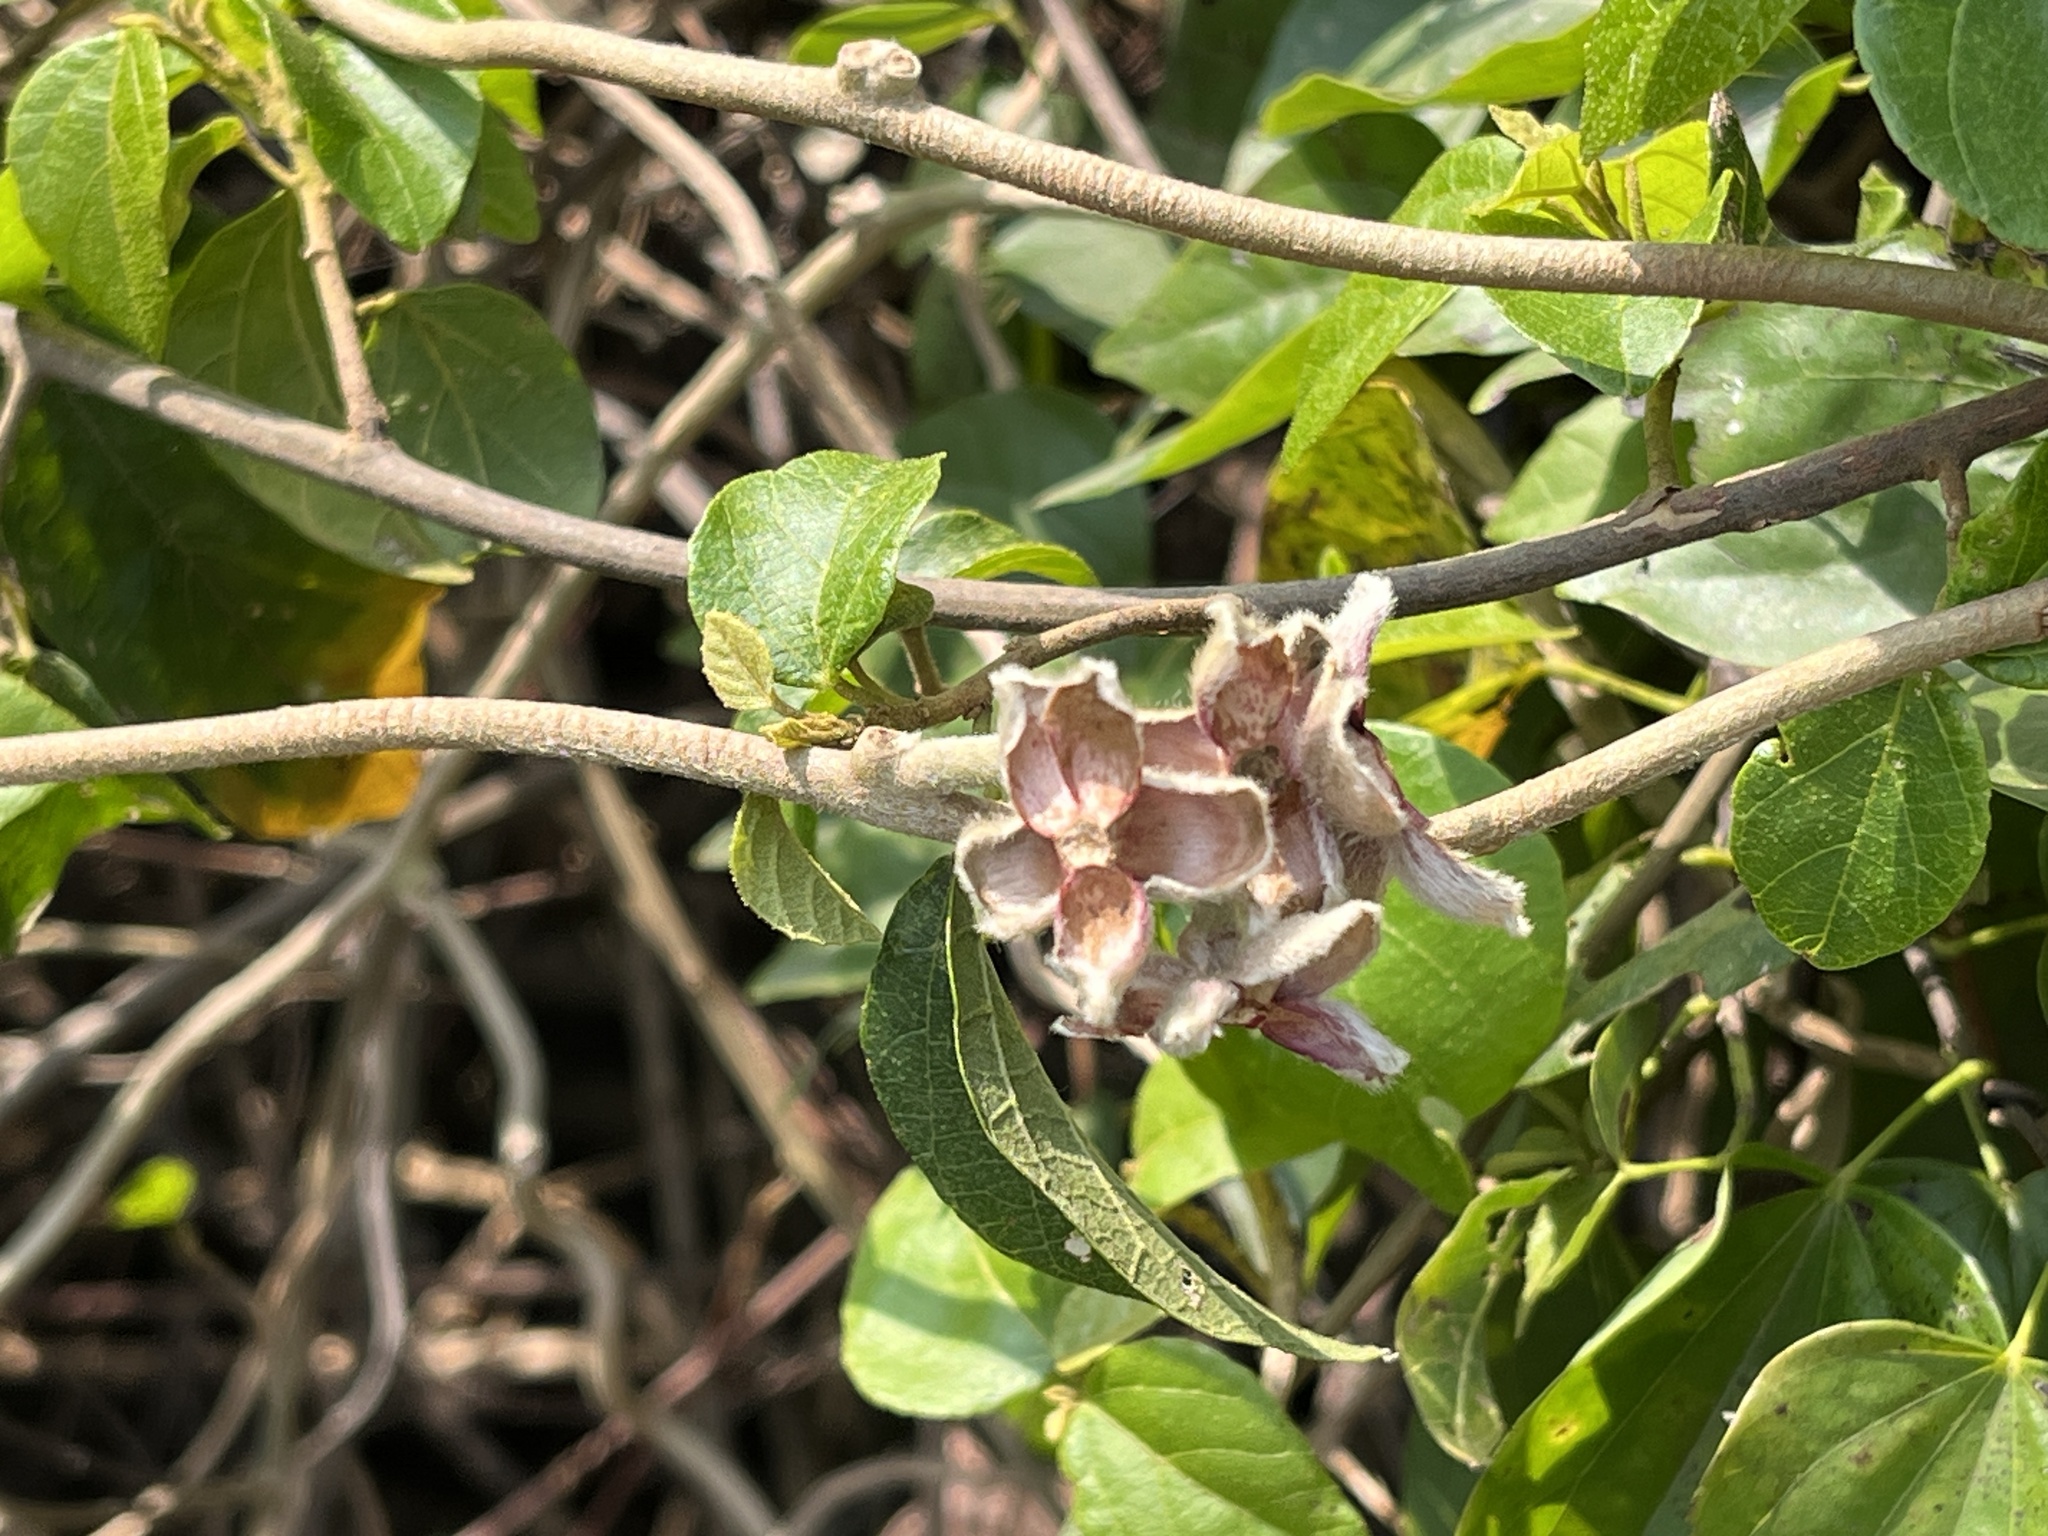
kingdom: Plantae
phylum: Tracheophyta
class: Magnoliopsida
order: Solanales
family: Convolvulaceae
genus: Argyreia
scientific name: Argyreia formosana
